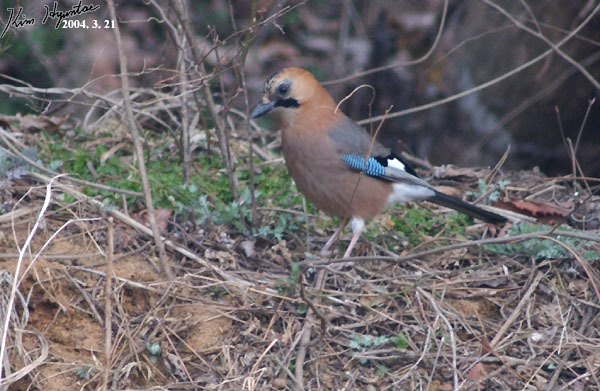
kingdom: Animalia
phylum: Chordata
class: Aves
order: Passeriformes
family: Corvidae
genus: Garrulus
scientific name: Garrulus glandarius
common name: Eurasian jay
